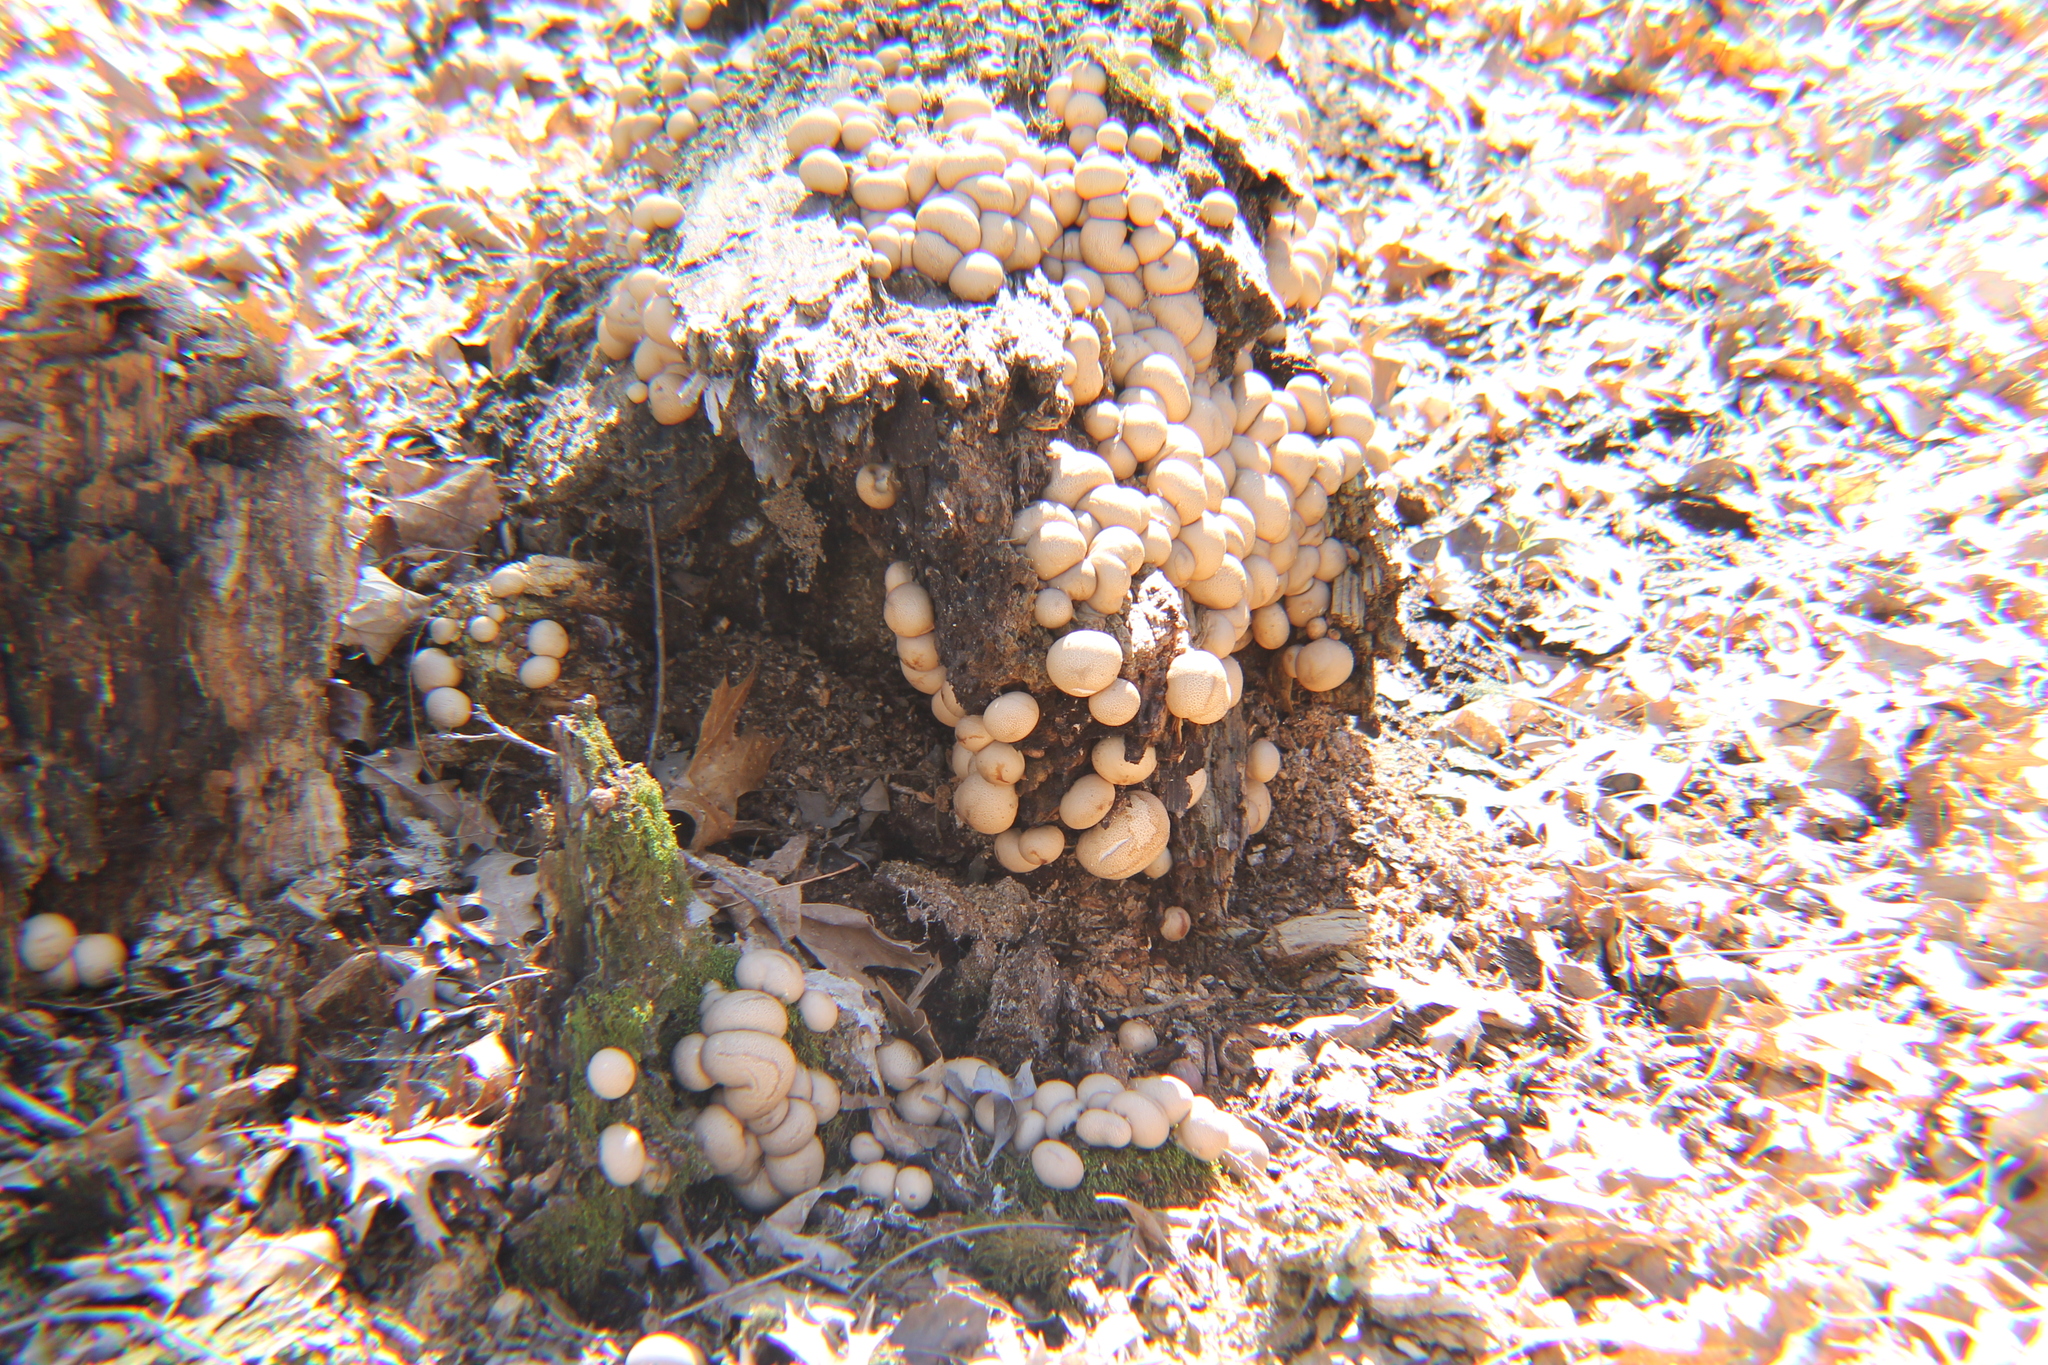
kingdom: Fungi
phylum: Basidiomycota
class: Agaricomycetes
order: Agaricales
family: Lycoperdaceae
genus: Apioperdon
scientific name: Apioperdon pyriforme
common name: Pear-shaped puffball
